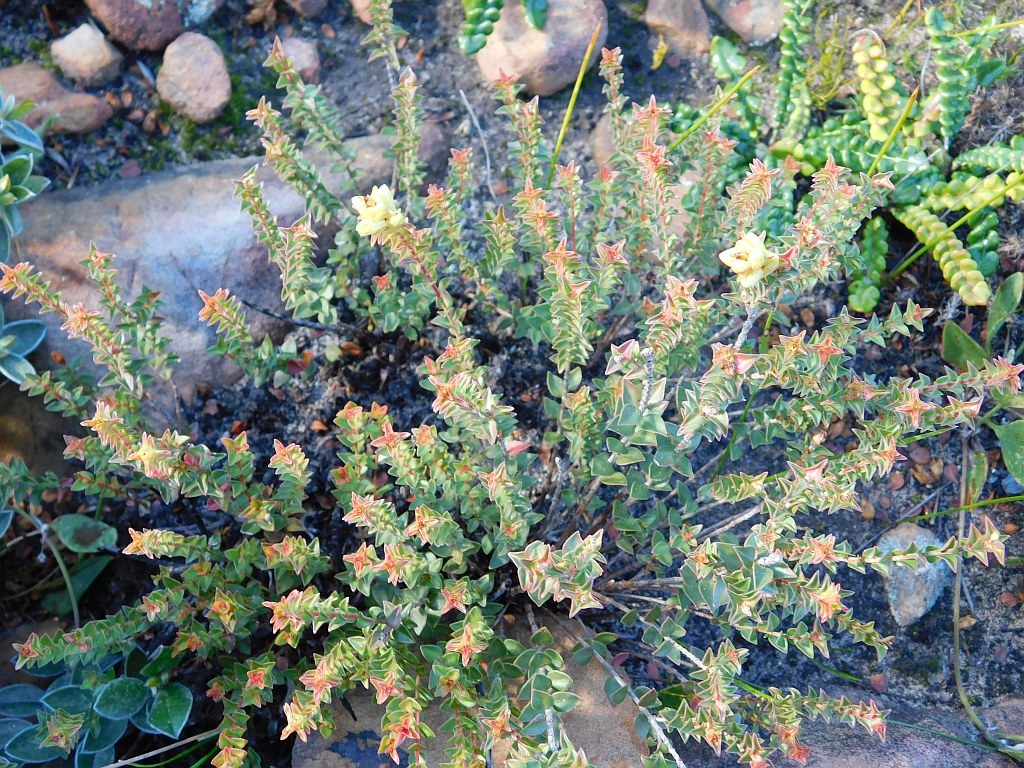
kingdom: Plantae
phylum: Tracheophyta
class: Magnoliopsida
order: Myrtales
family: Penaeaceae
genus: Penaea
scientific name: Penaea mucronata
